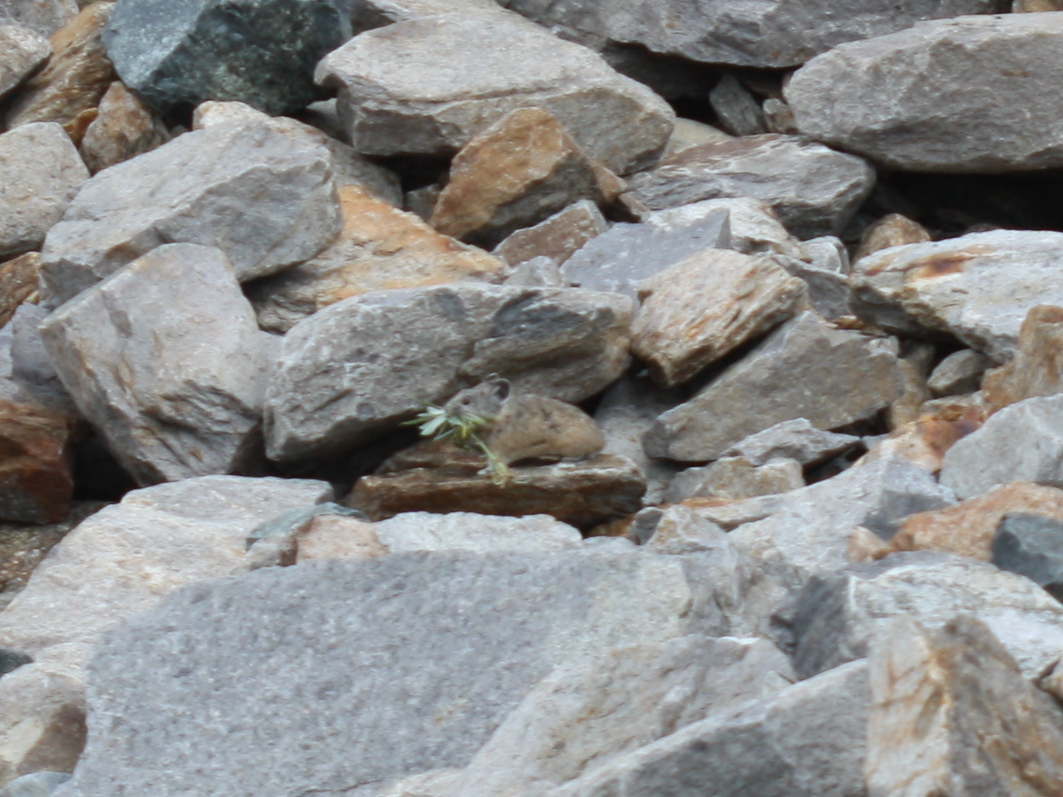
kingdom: Animalia
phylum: Chordata
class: Mammalia
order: Lagomorpha
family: Ochotonidae
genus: Ochotona
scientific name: Ochotona princeps
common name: American pika
